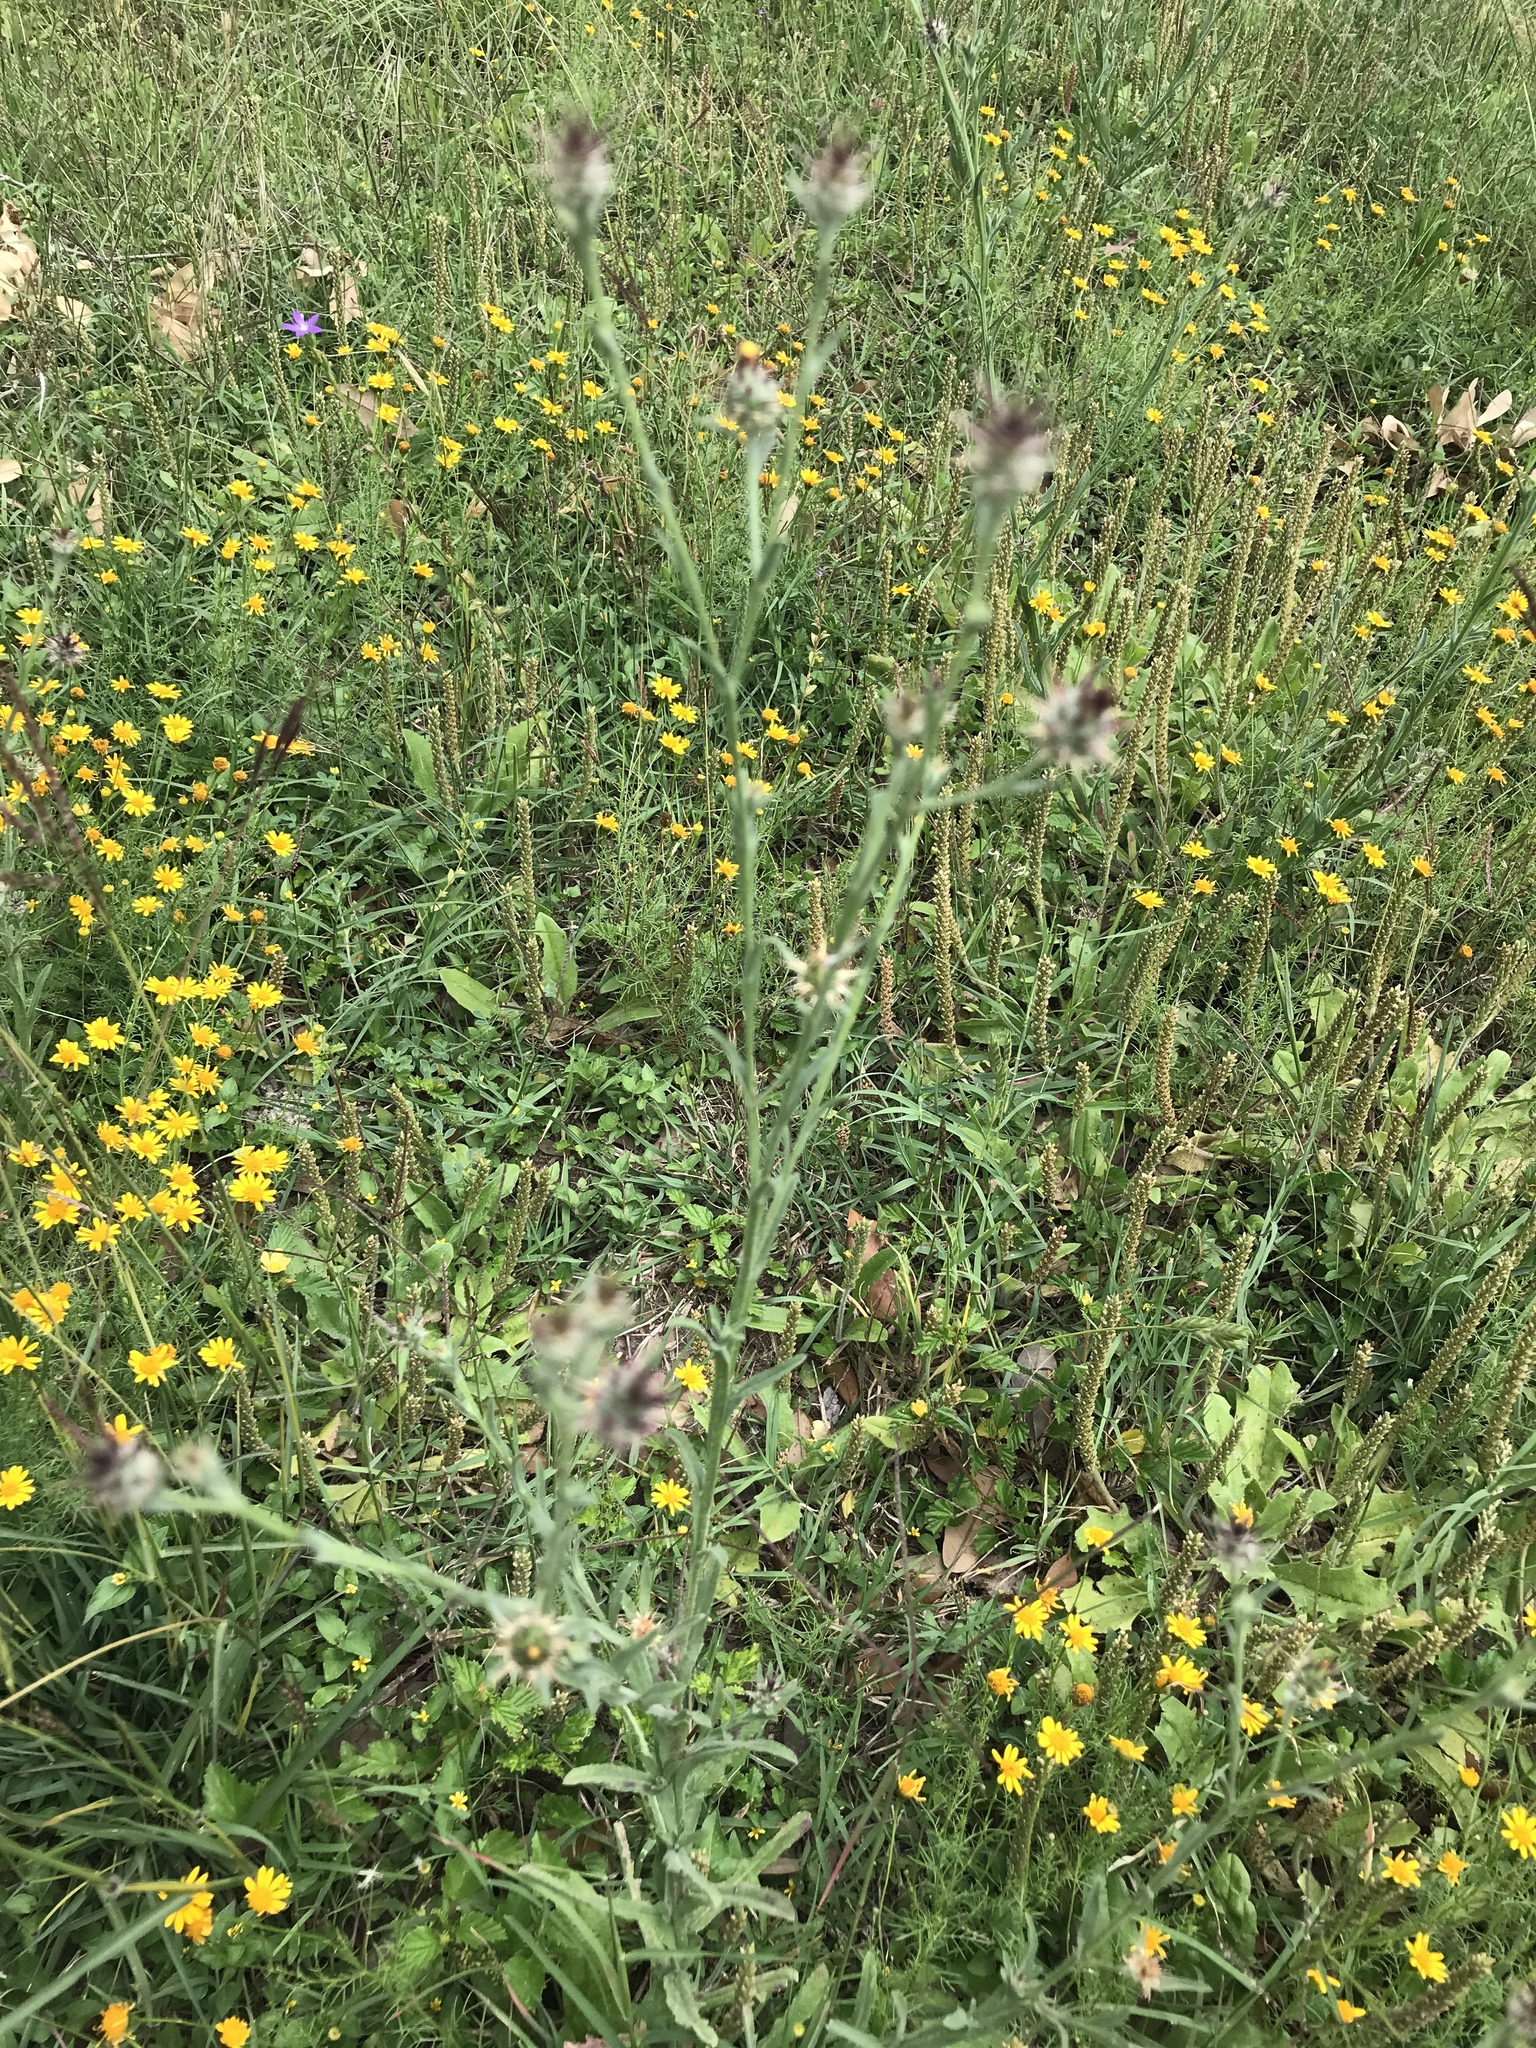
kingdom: Plantae
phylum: Tracheophyta
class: Magnoliopsida
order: Asterales
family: Asteraceae
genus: Centaurea
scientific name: Centaurea melitensis
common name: Maltese star-thistle
